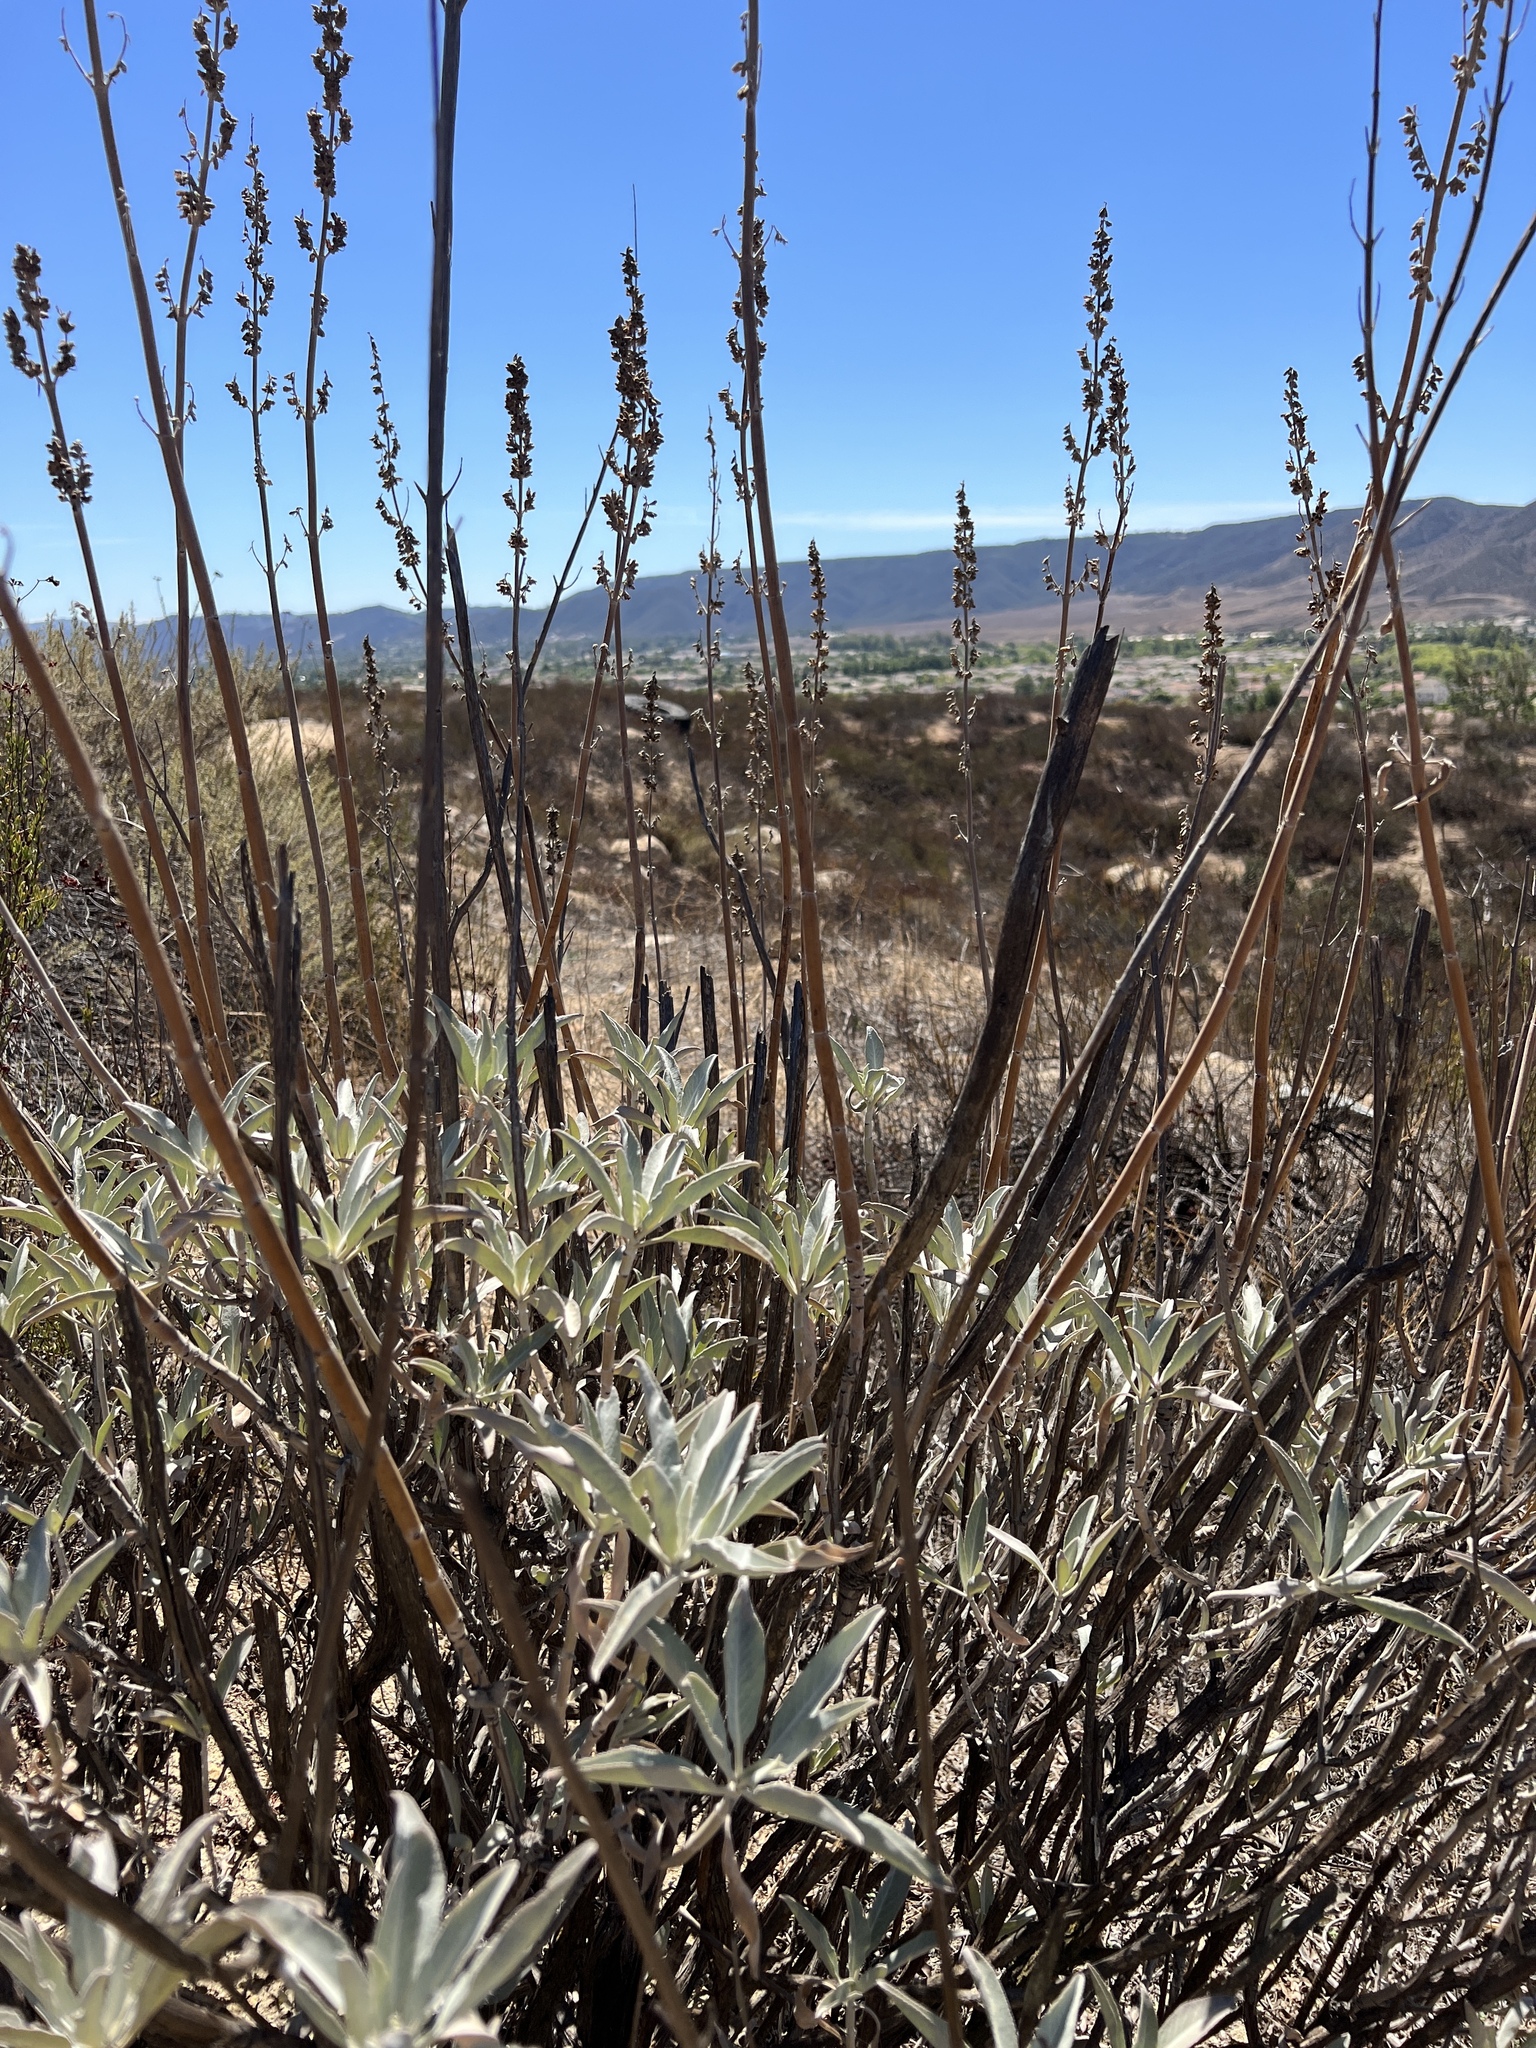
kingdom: Plantae
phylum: Tracheophyta
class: Magnoliopsida
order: Lamiales
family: Lamiaceae
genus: Salvia
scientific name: Salvia apiana
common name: White sage
